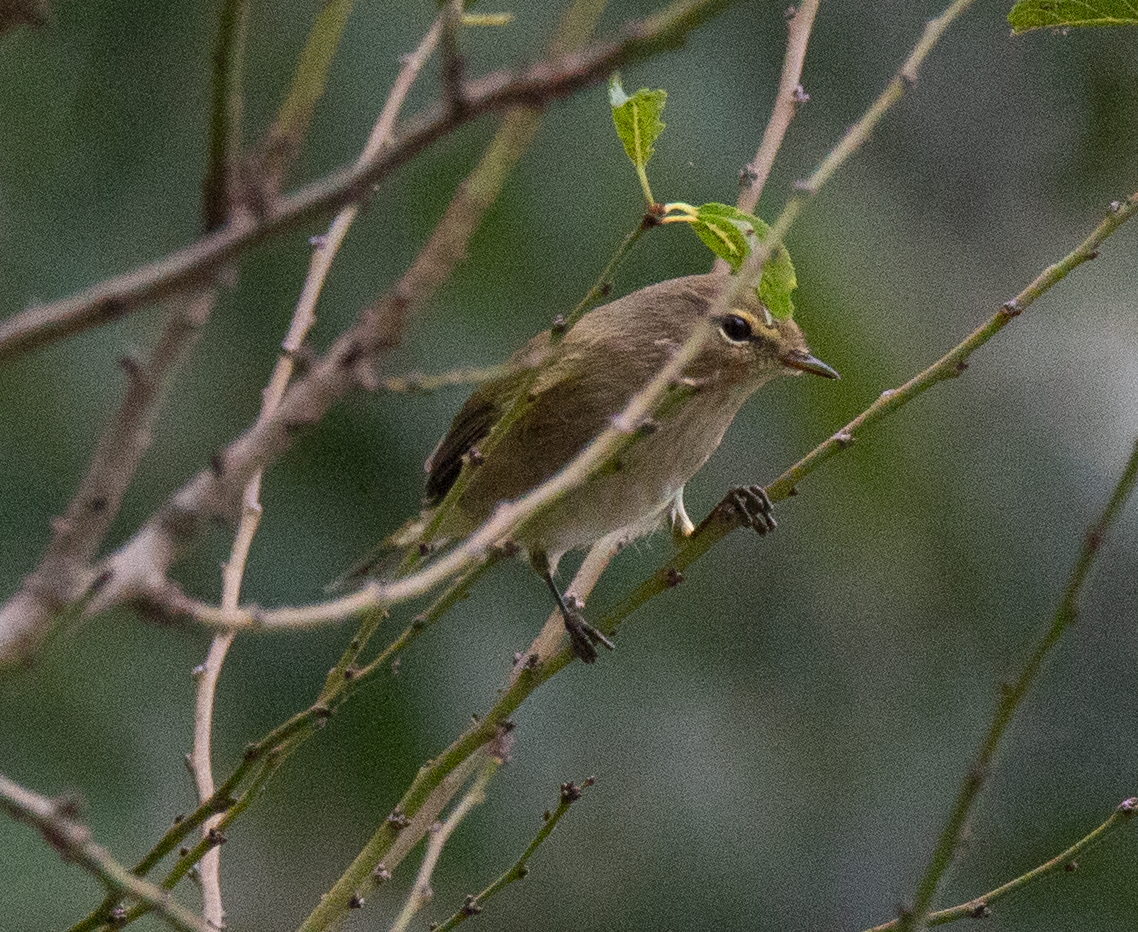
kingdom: Animalia
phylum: Chordata
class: Aves
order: Passeriformes
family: Phylloscopidae
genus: Phylloscopus
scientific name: Phylloscopus collybita
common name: Common chiffchaff
